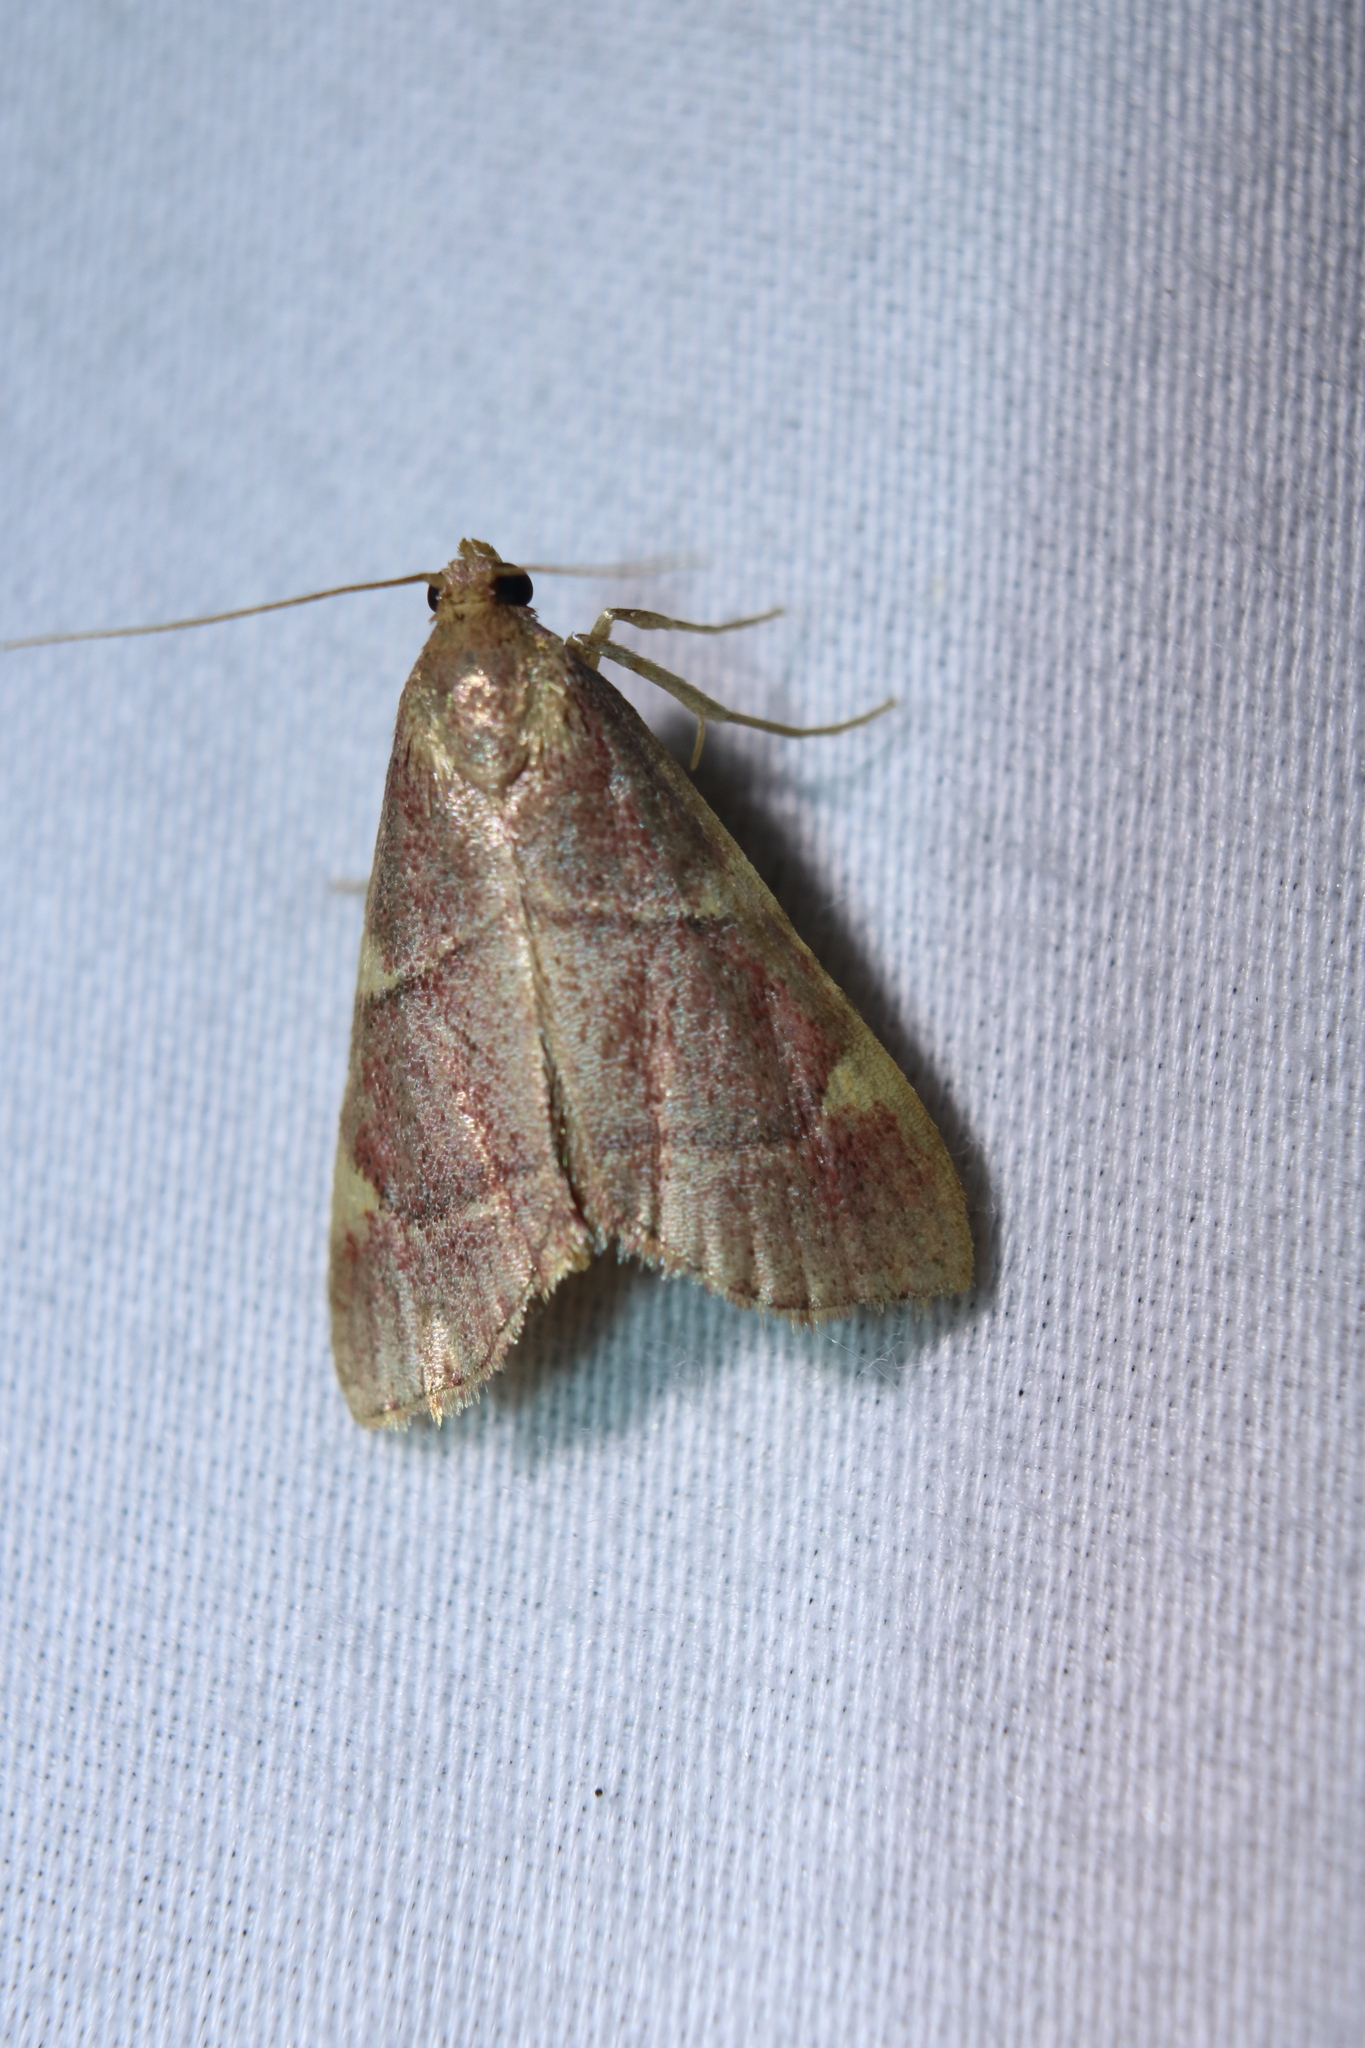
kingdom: Animalia
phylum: Arthropoda
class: Insecta
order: Lepidoptera
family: Pyralidae
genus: Hypsopygia
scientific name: Hypsopygia olinalis
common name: Yellow-fringed dolichomia moth
